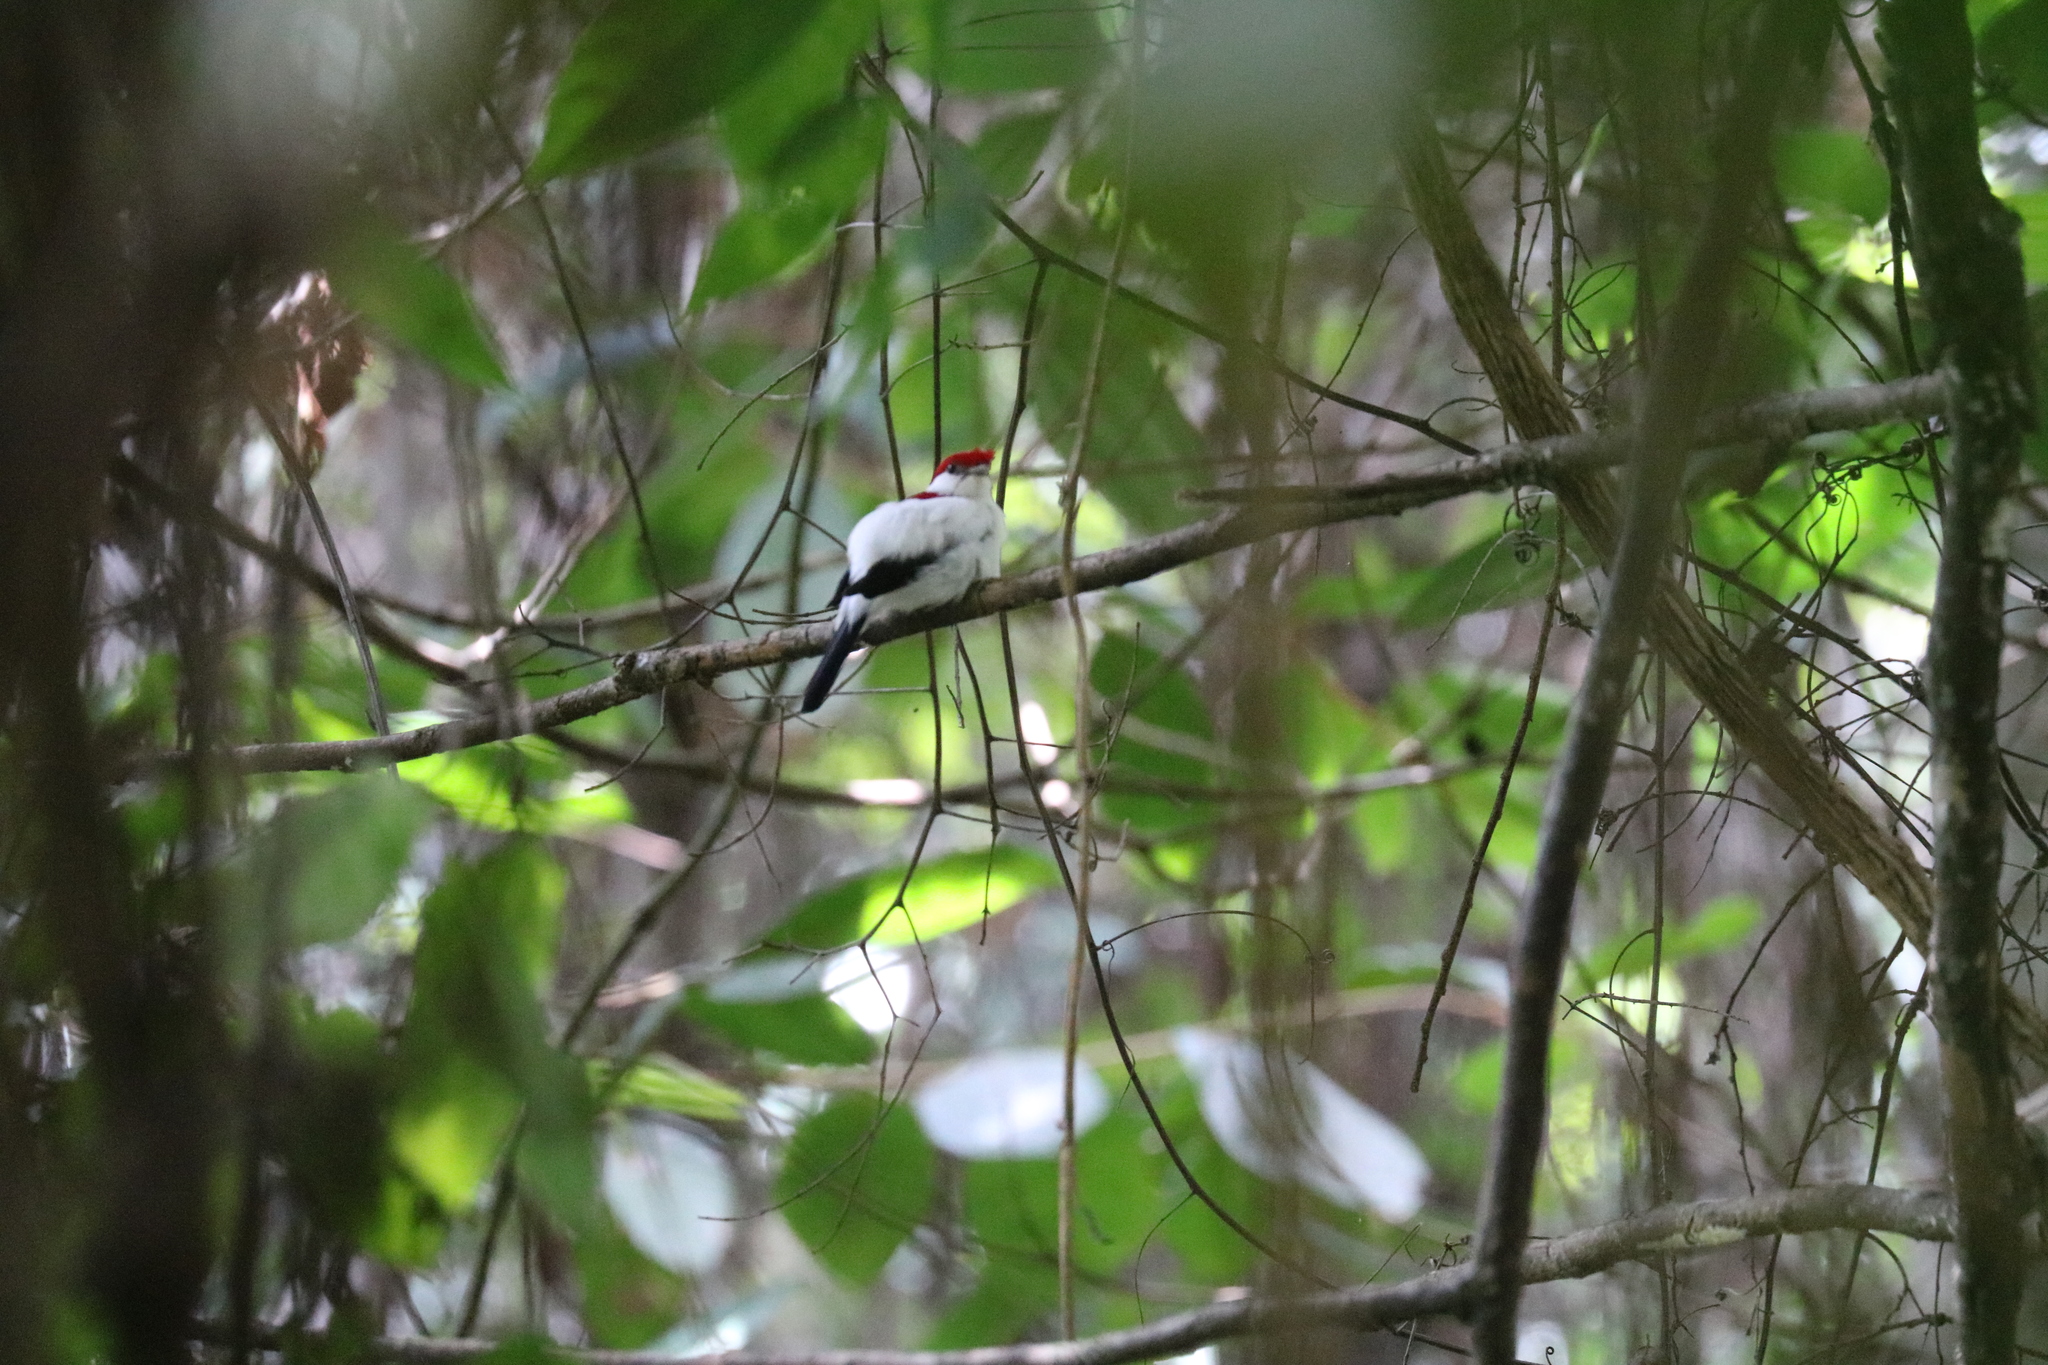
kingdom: Animalia
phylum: Chordata
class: Aves
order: Passeriformes
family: Pipridae
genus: Antilophia
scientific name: Antilophia bokermanni
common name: Araripe manakin
